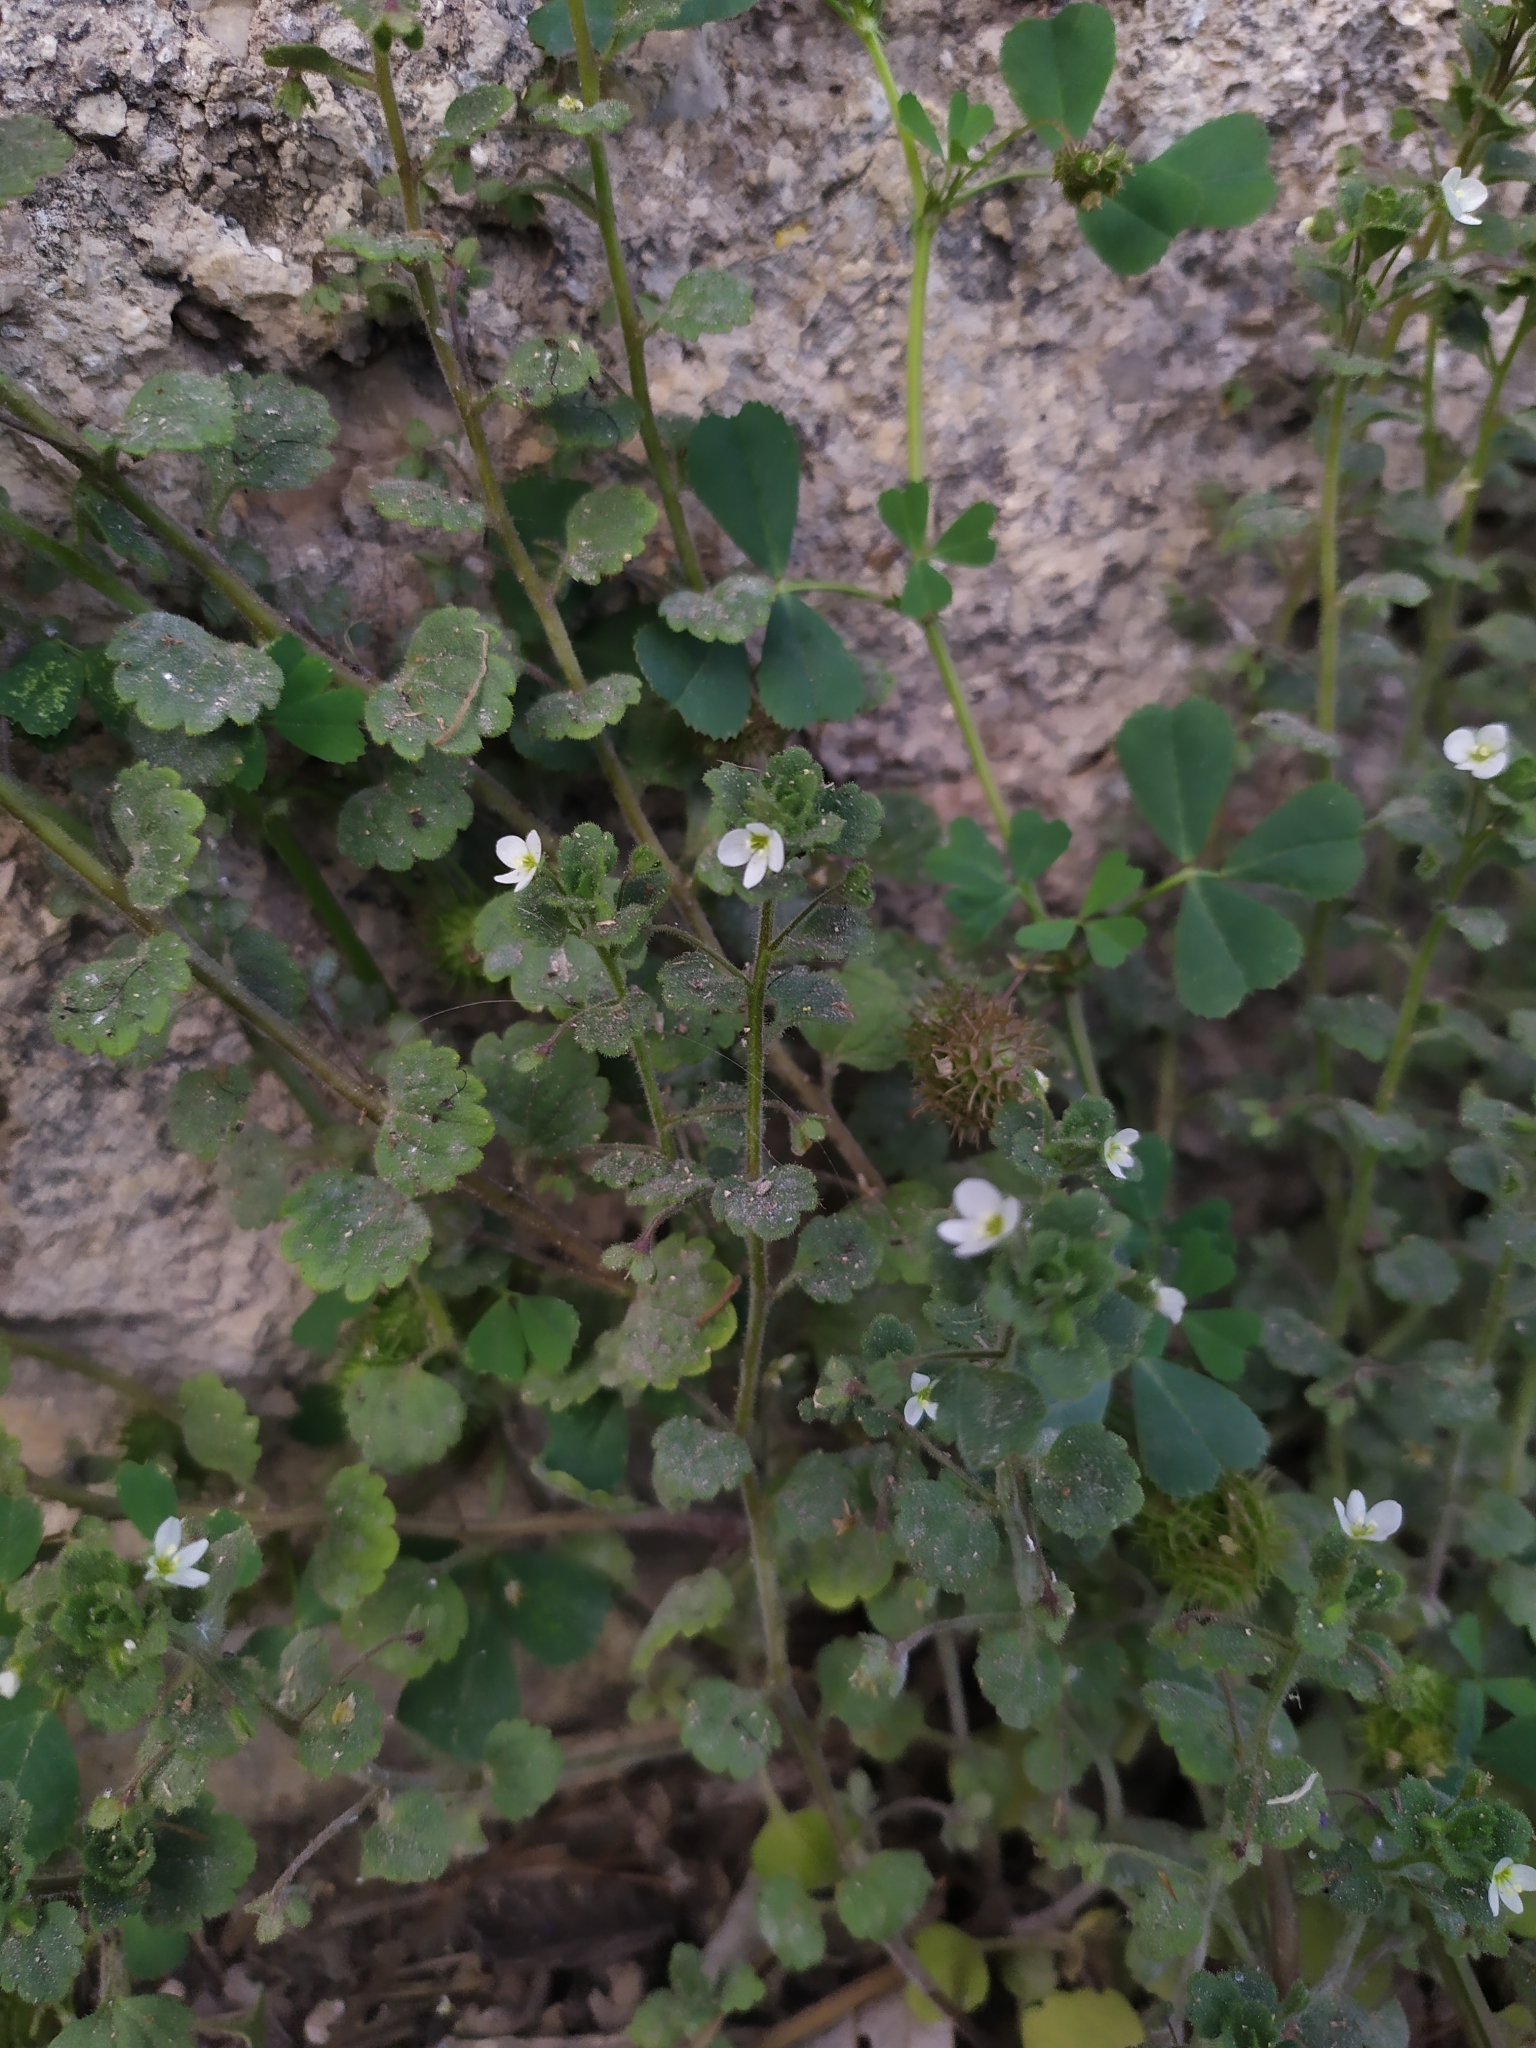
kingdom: Plantae
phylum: Tracheophyta
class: Magnoliopsida
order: Lamiales
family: Plantaginaceae
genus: Veronica
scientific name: Veronica cymbalaria
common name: Pale speedwell
